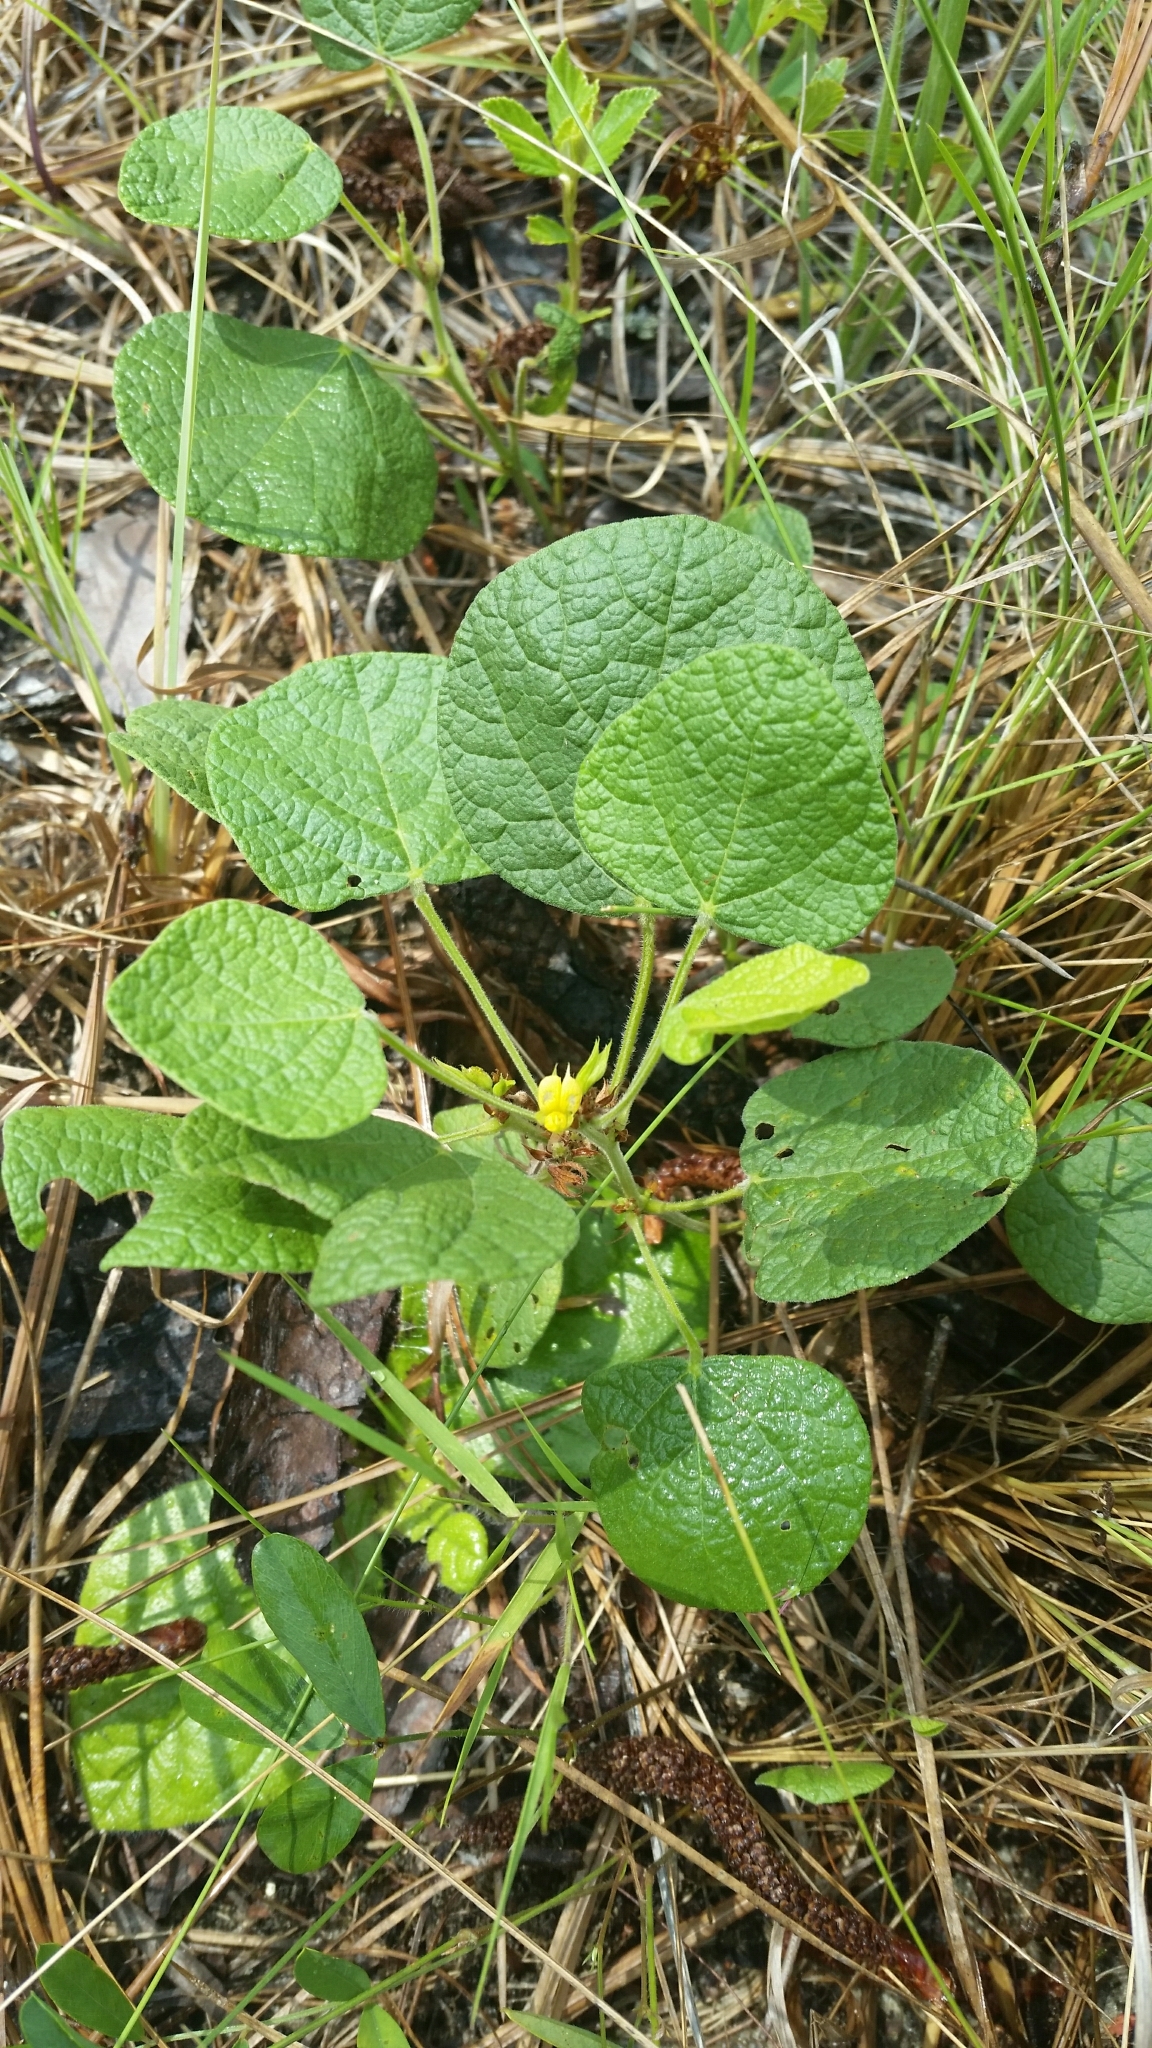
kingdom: Plantae
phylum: Tracheophyta
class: Magnoliopsida
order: Fabales
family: Fabaceae
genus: Rhynchosia
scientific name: Rhynchosia reniformis
